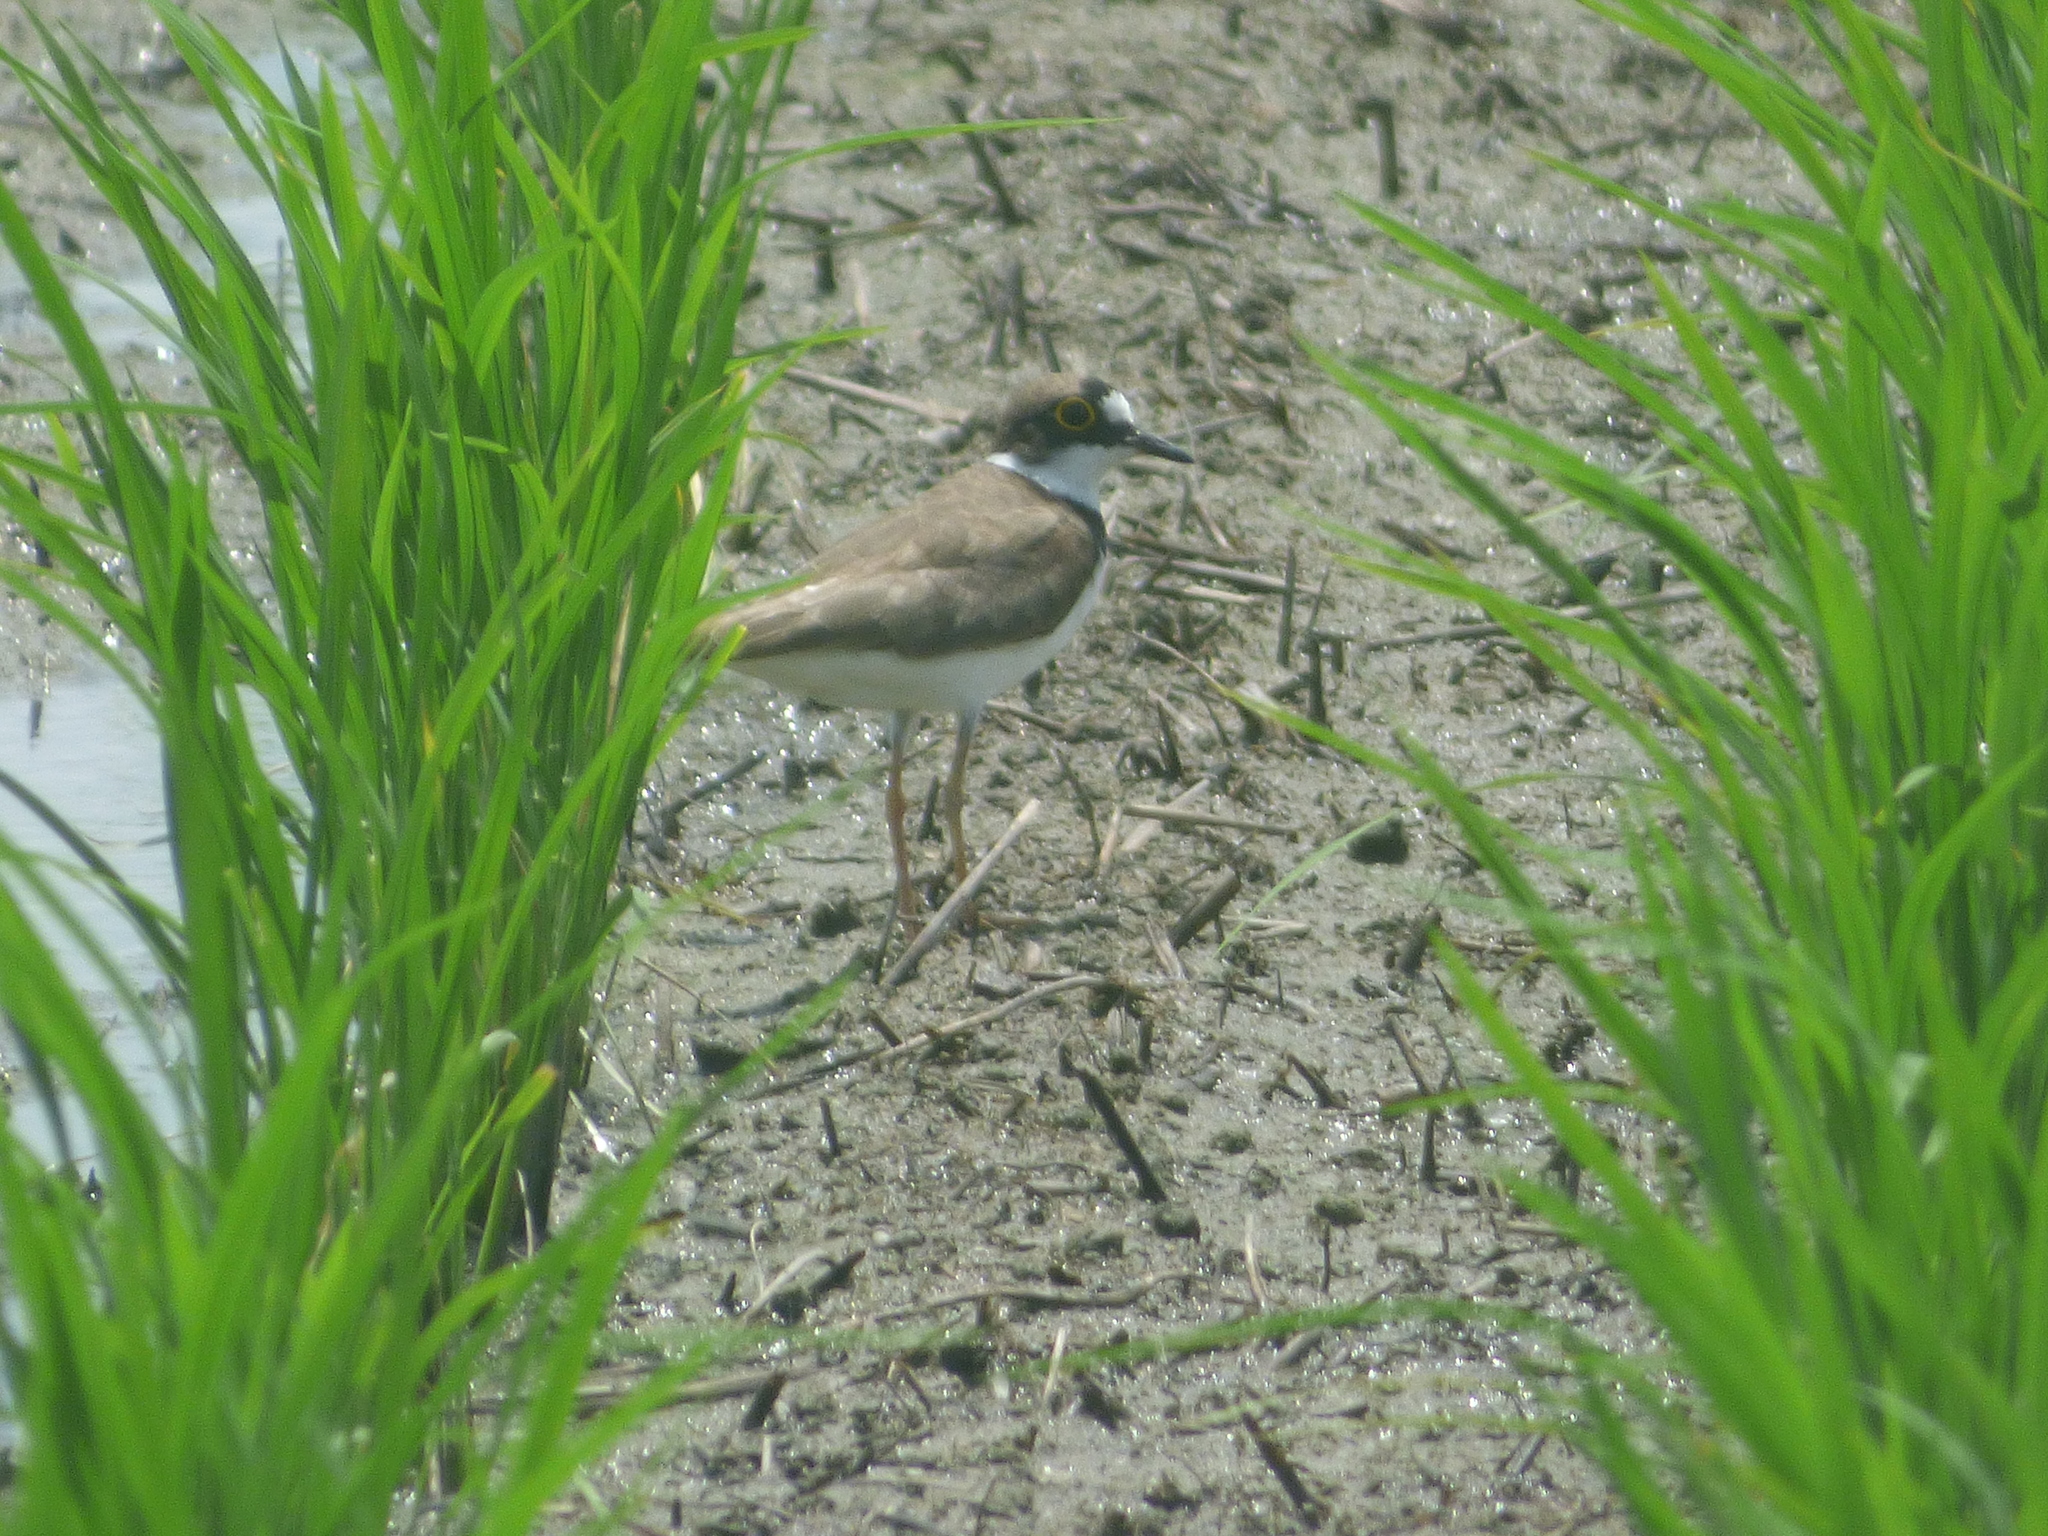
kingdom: Animalia
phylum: Chordata
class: Aves
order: Charadriiformes
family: Charadriidae
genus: Charadrius
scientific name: Charadrius dubius
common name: Little ringed plover
